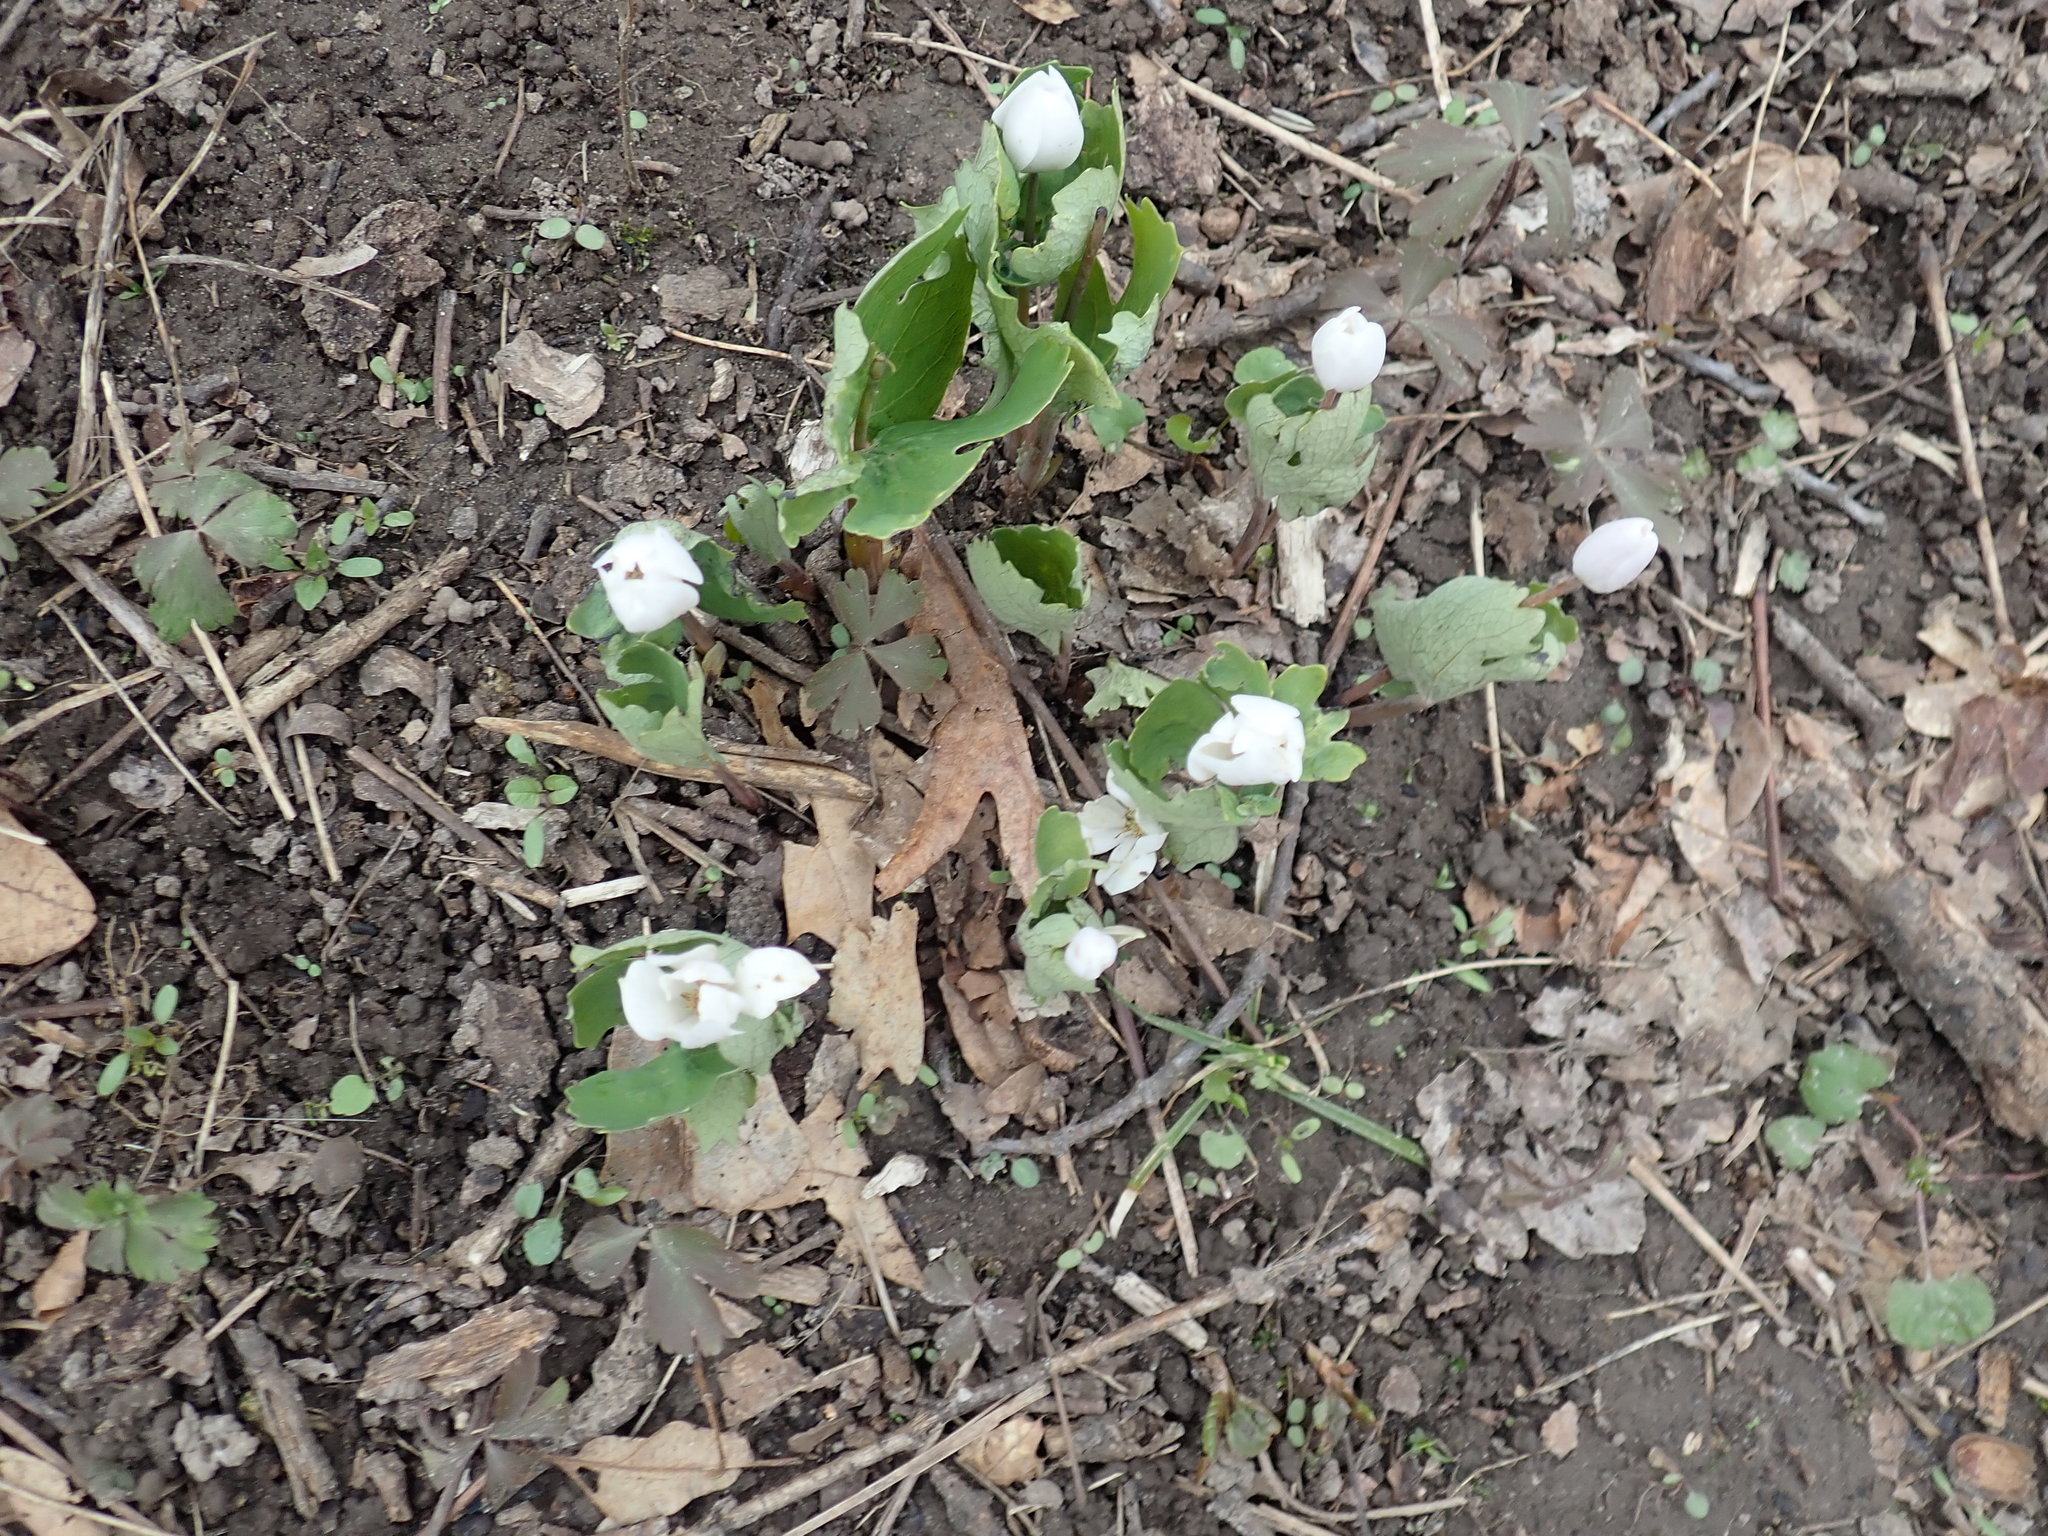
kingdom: Plantae
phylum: Tracheophyta
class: Magnoliopsida
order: Ranunculales
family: Papaveraceae
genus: Sanguinaria
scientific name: Sanguinaria canadensis
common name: Bloodroot
